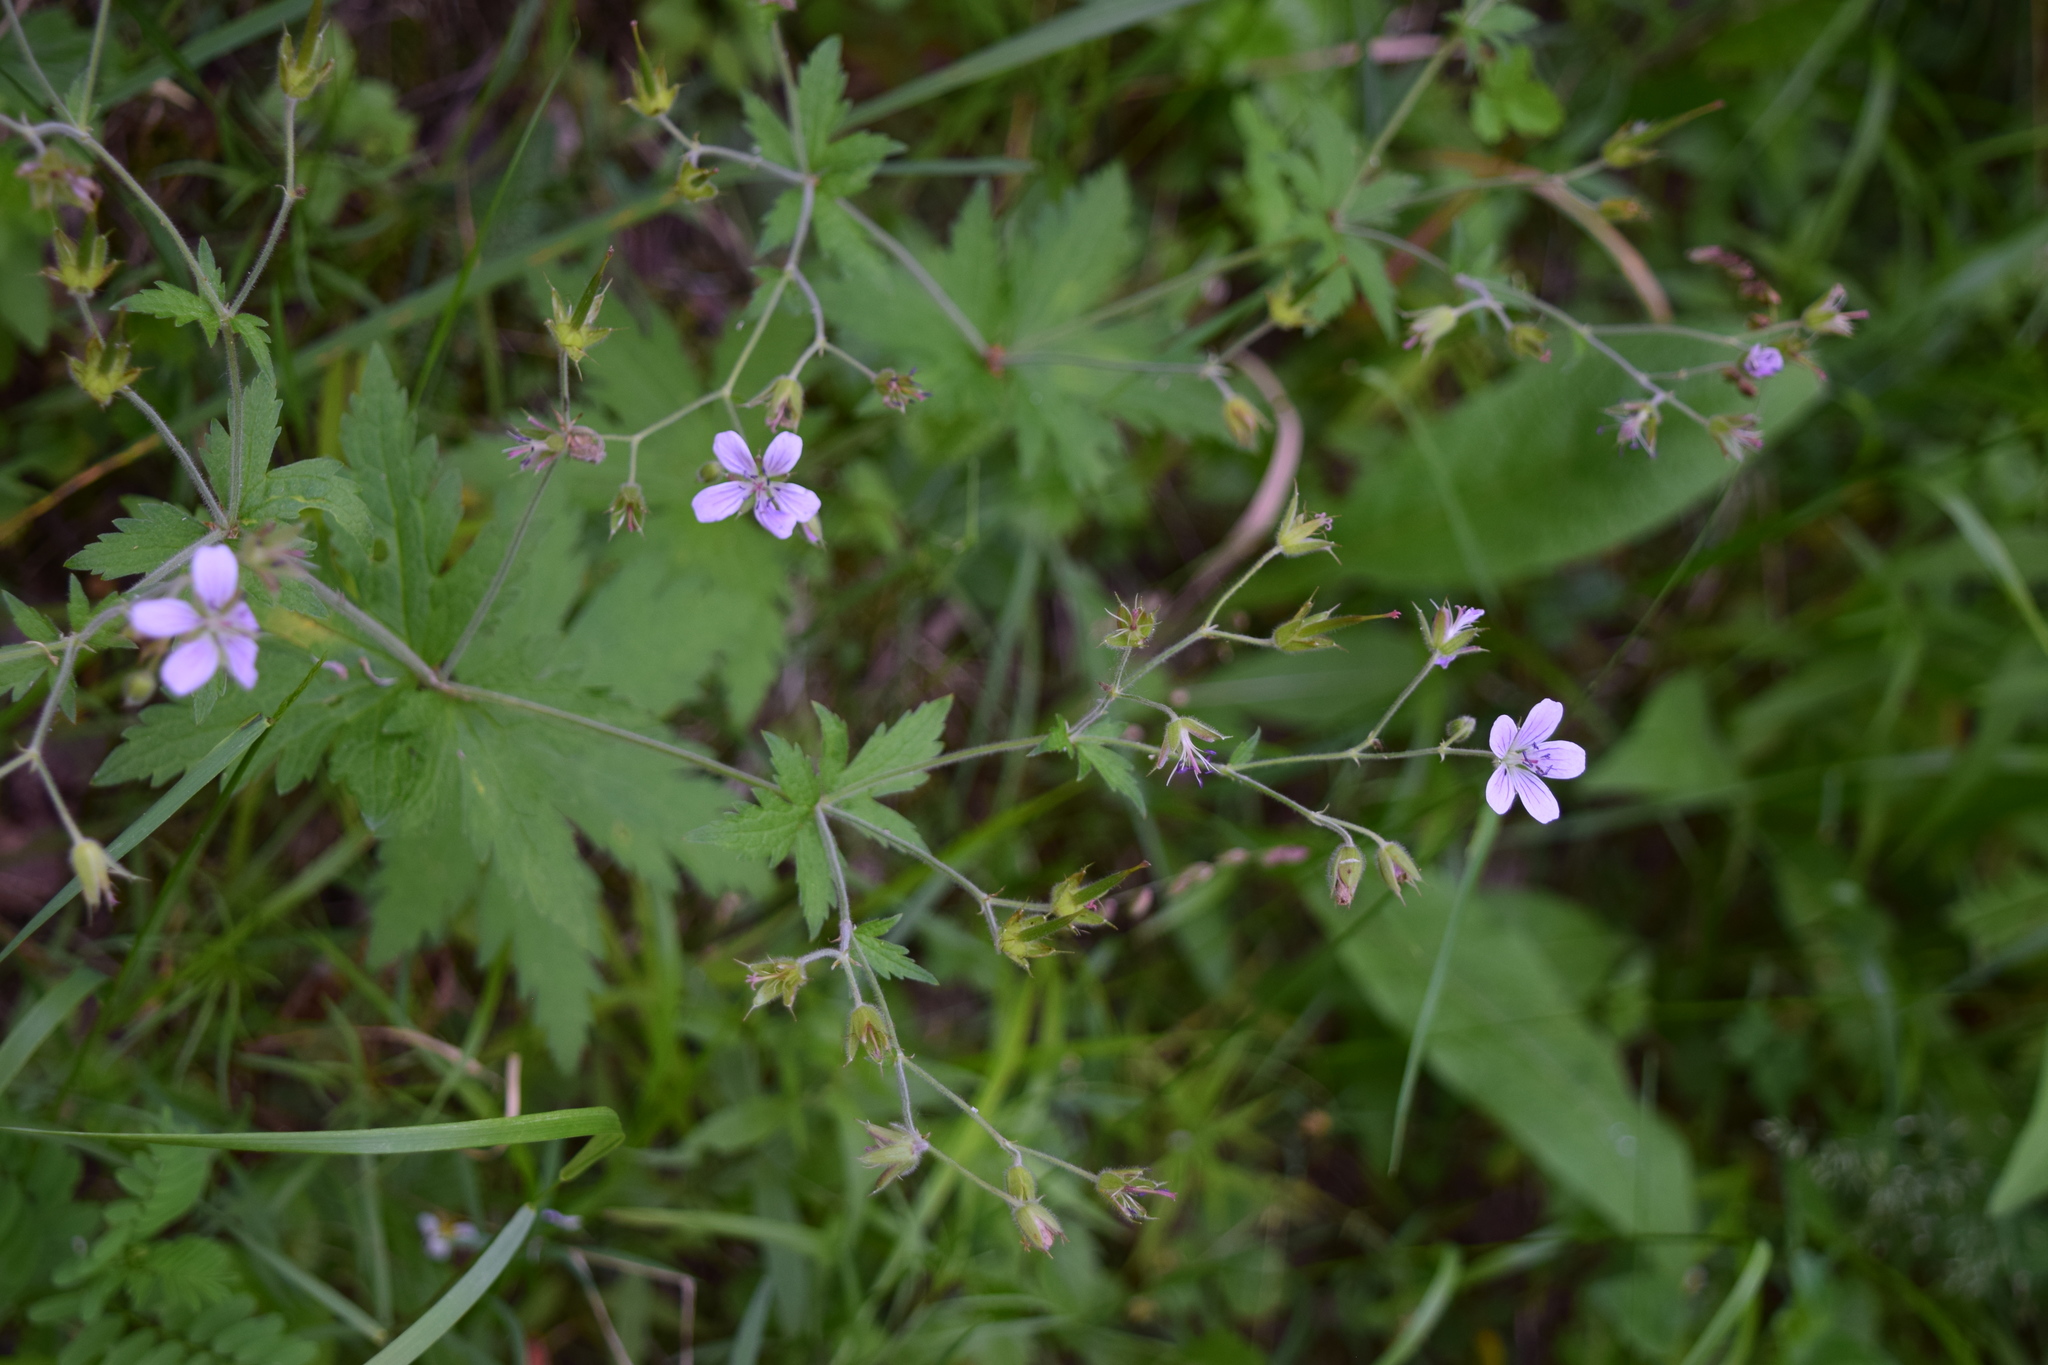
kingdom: Plantae
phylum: Tracheophyta
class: Magnoliopsida
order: Geraniales
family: Geraniaceae
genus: Geranium
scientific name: Geranium sylvaticum
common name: Wood crane's-bill
